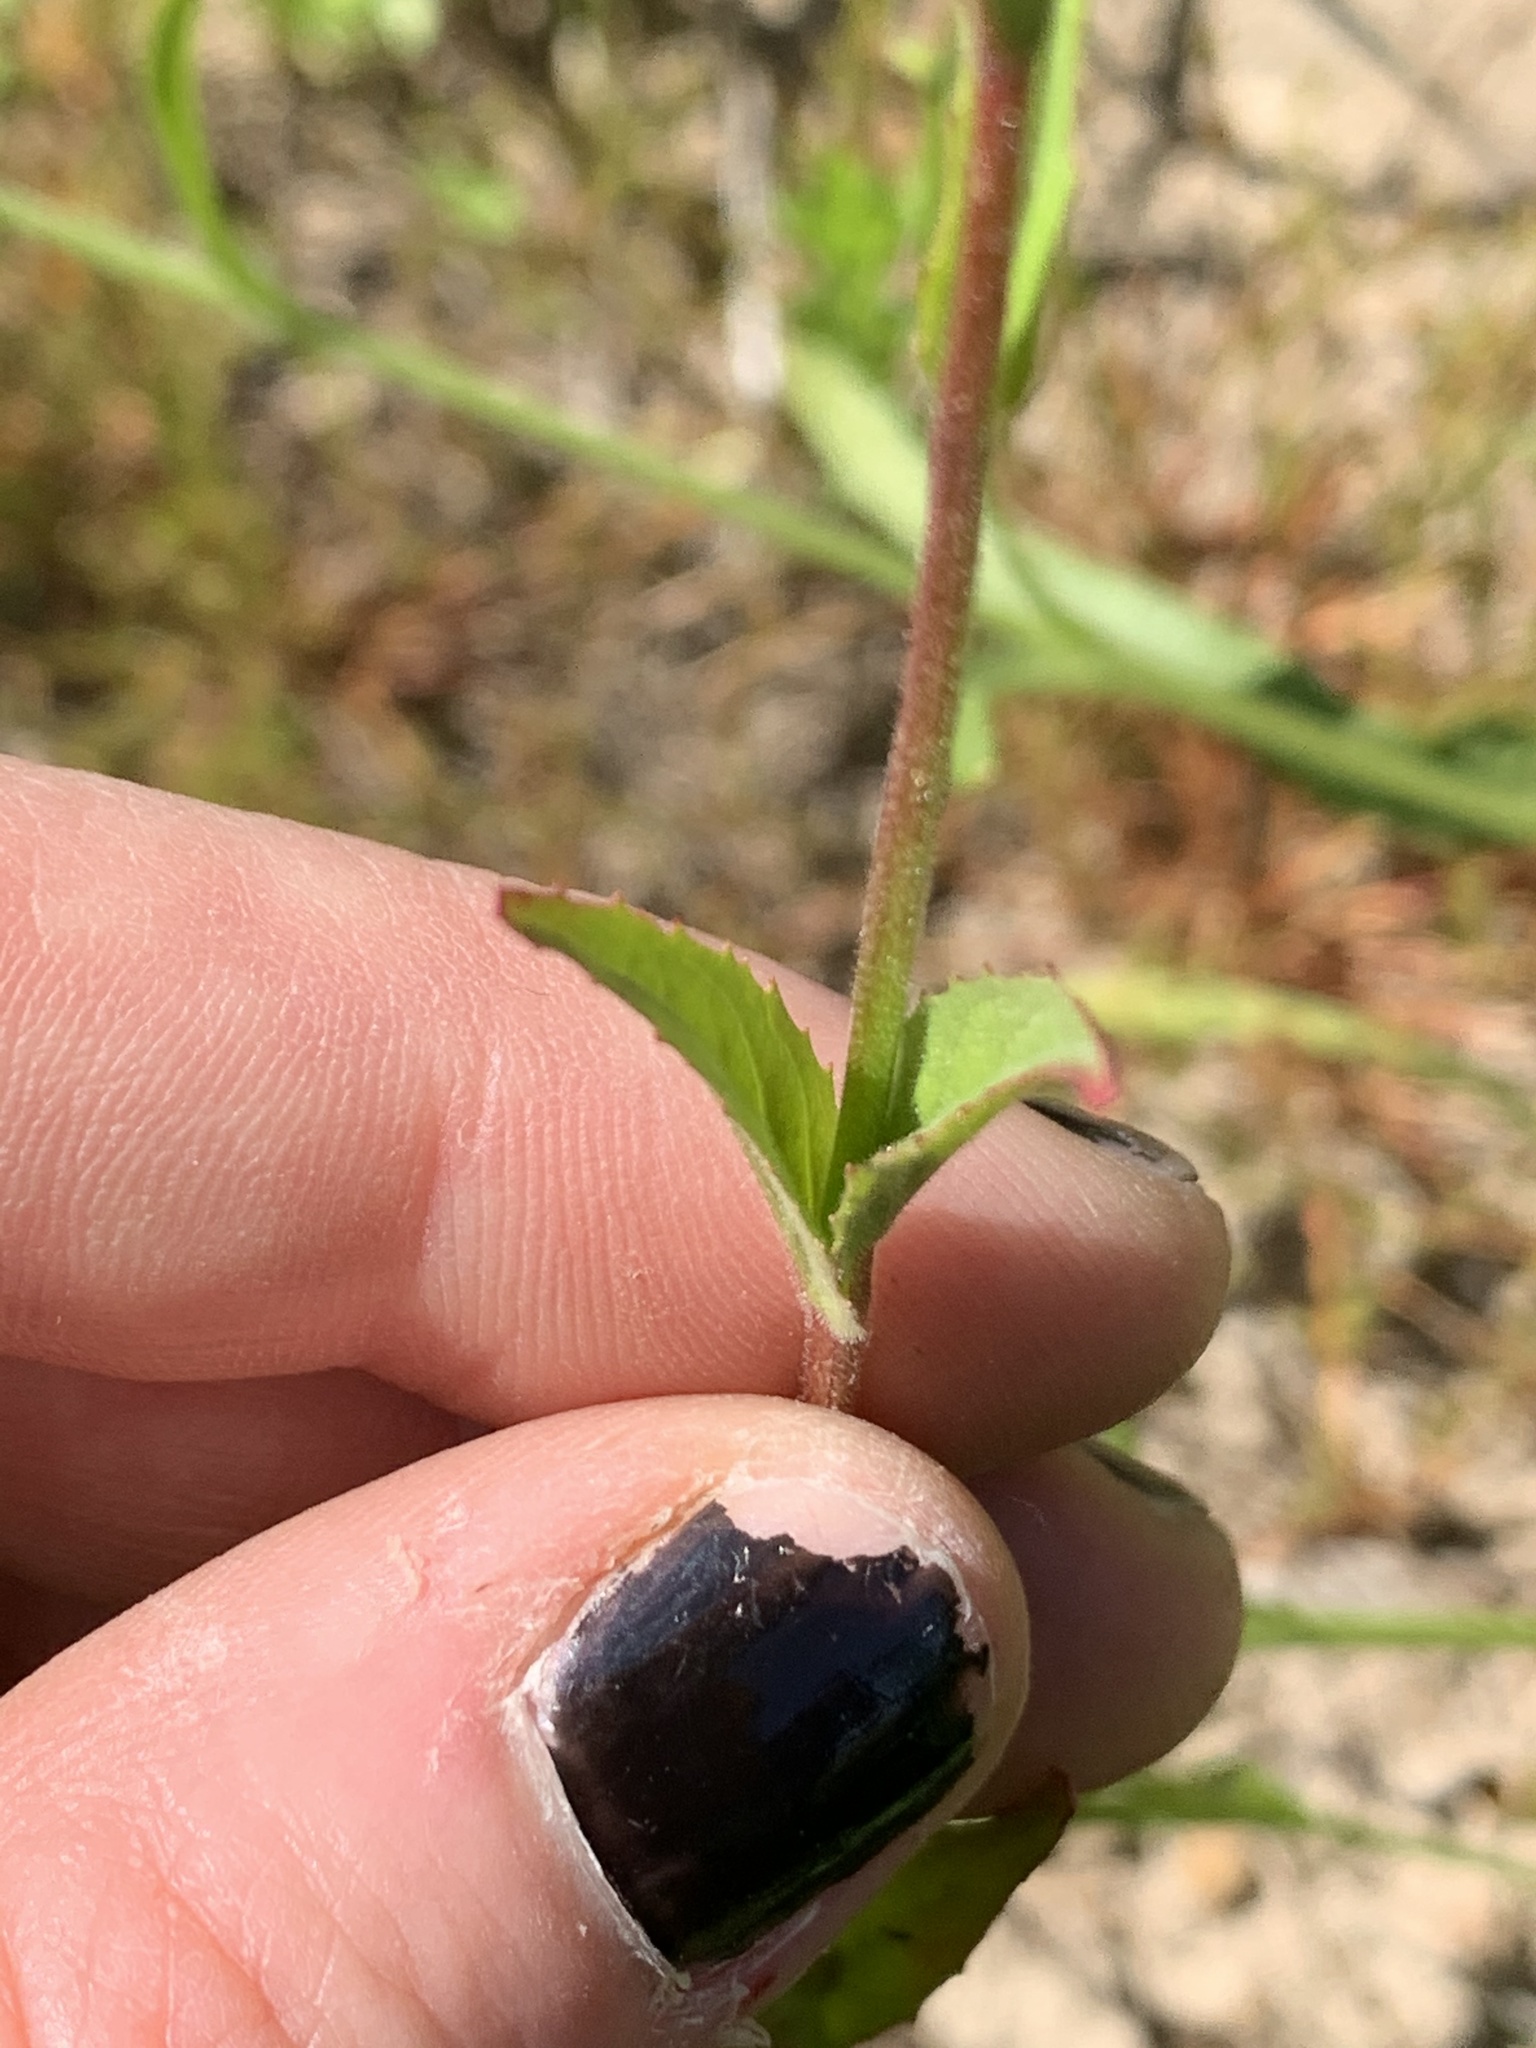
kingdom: Plantae
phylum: Tracheophyta
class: Magnoliopsida
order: Myrtales
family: Onagraceae
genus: Epilobium
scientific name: Epilobium ciliatum
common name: American willowherb
